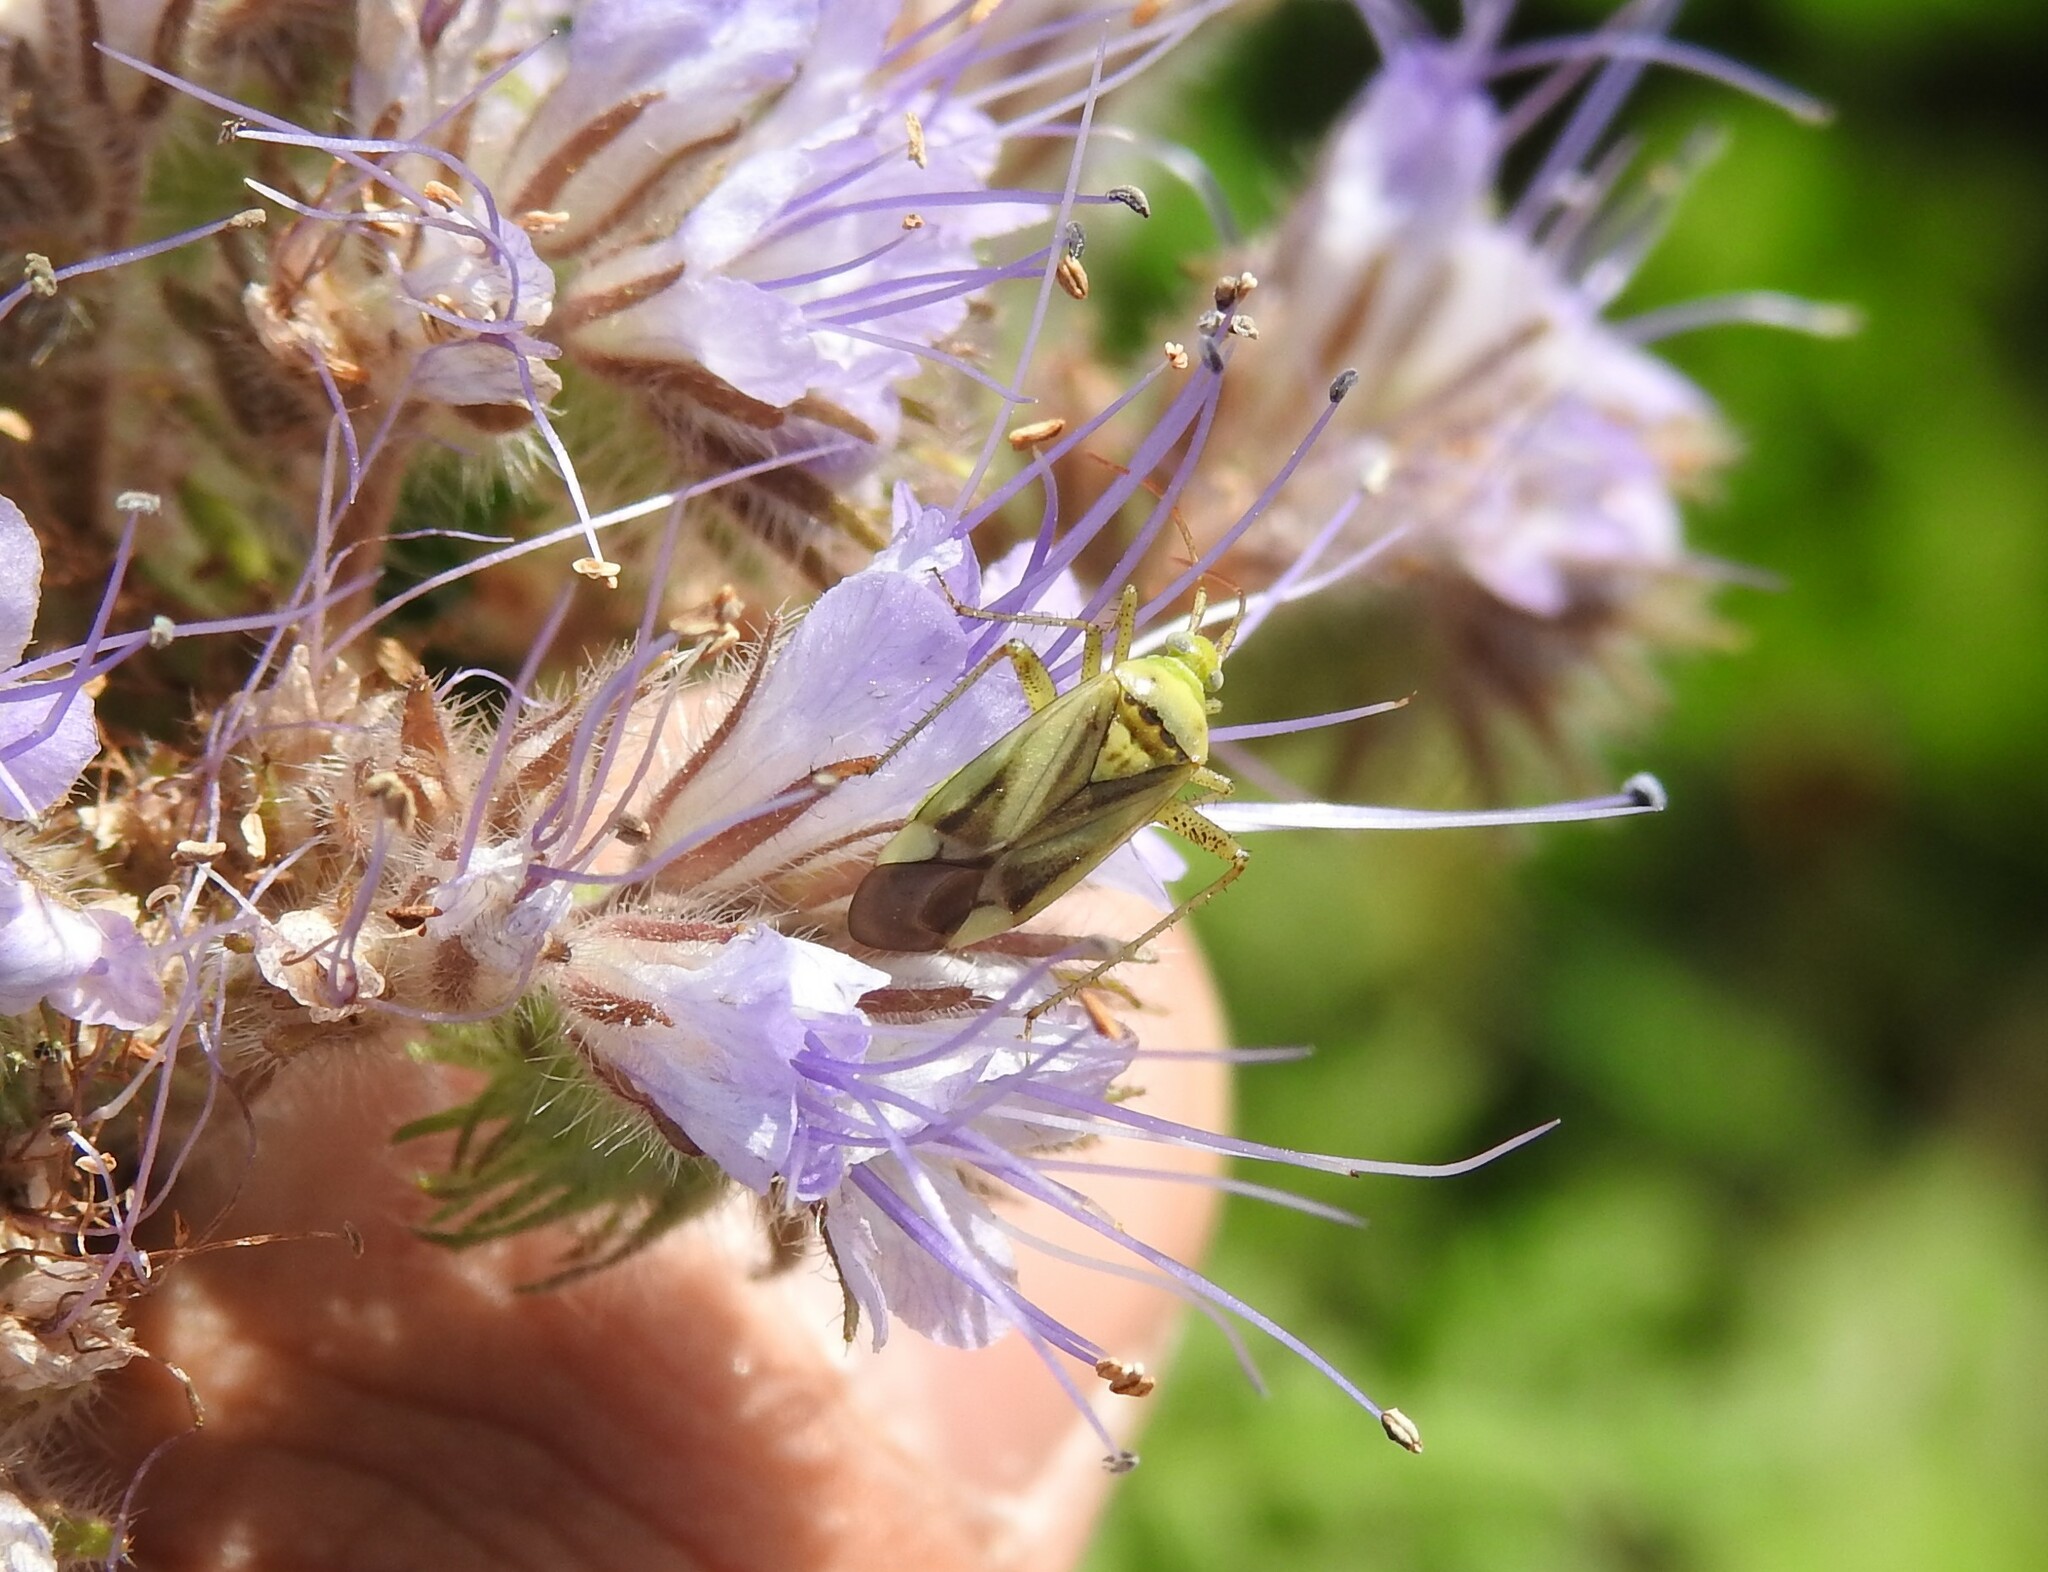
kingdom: Animalia
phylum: Arthropoda
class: Insecta
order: Hemiptera
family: Miridae
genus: Adelphocoris
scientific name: Adelphocoris lineolatus
